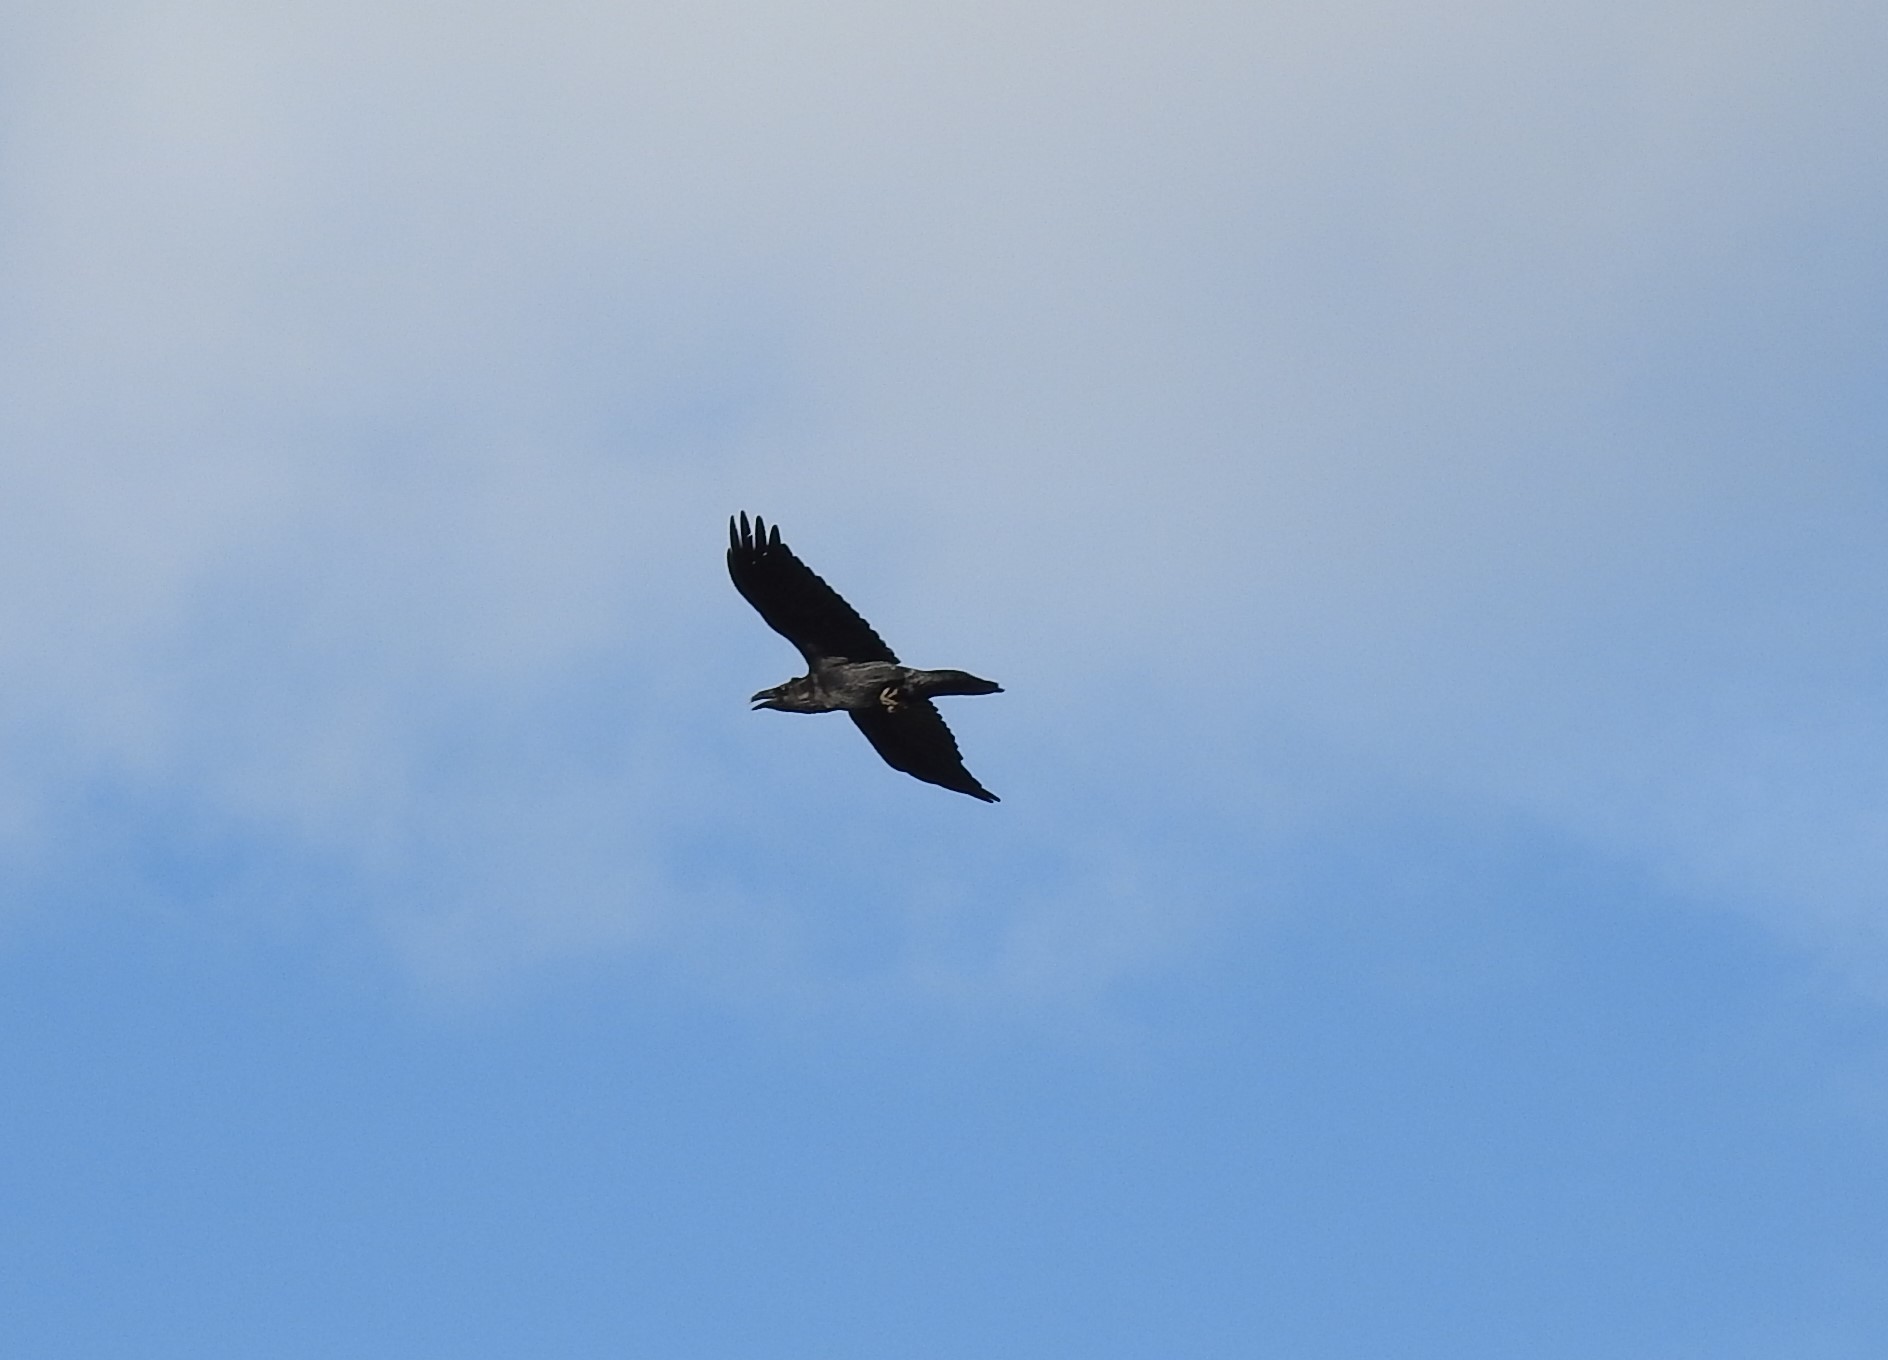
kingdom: Animalia
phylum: Chordata
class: Aves
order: Passeriformes
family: Corvidae
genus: Corvus
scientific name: Corvus corax
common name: Common raven
